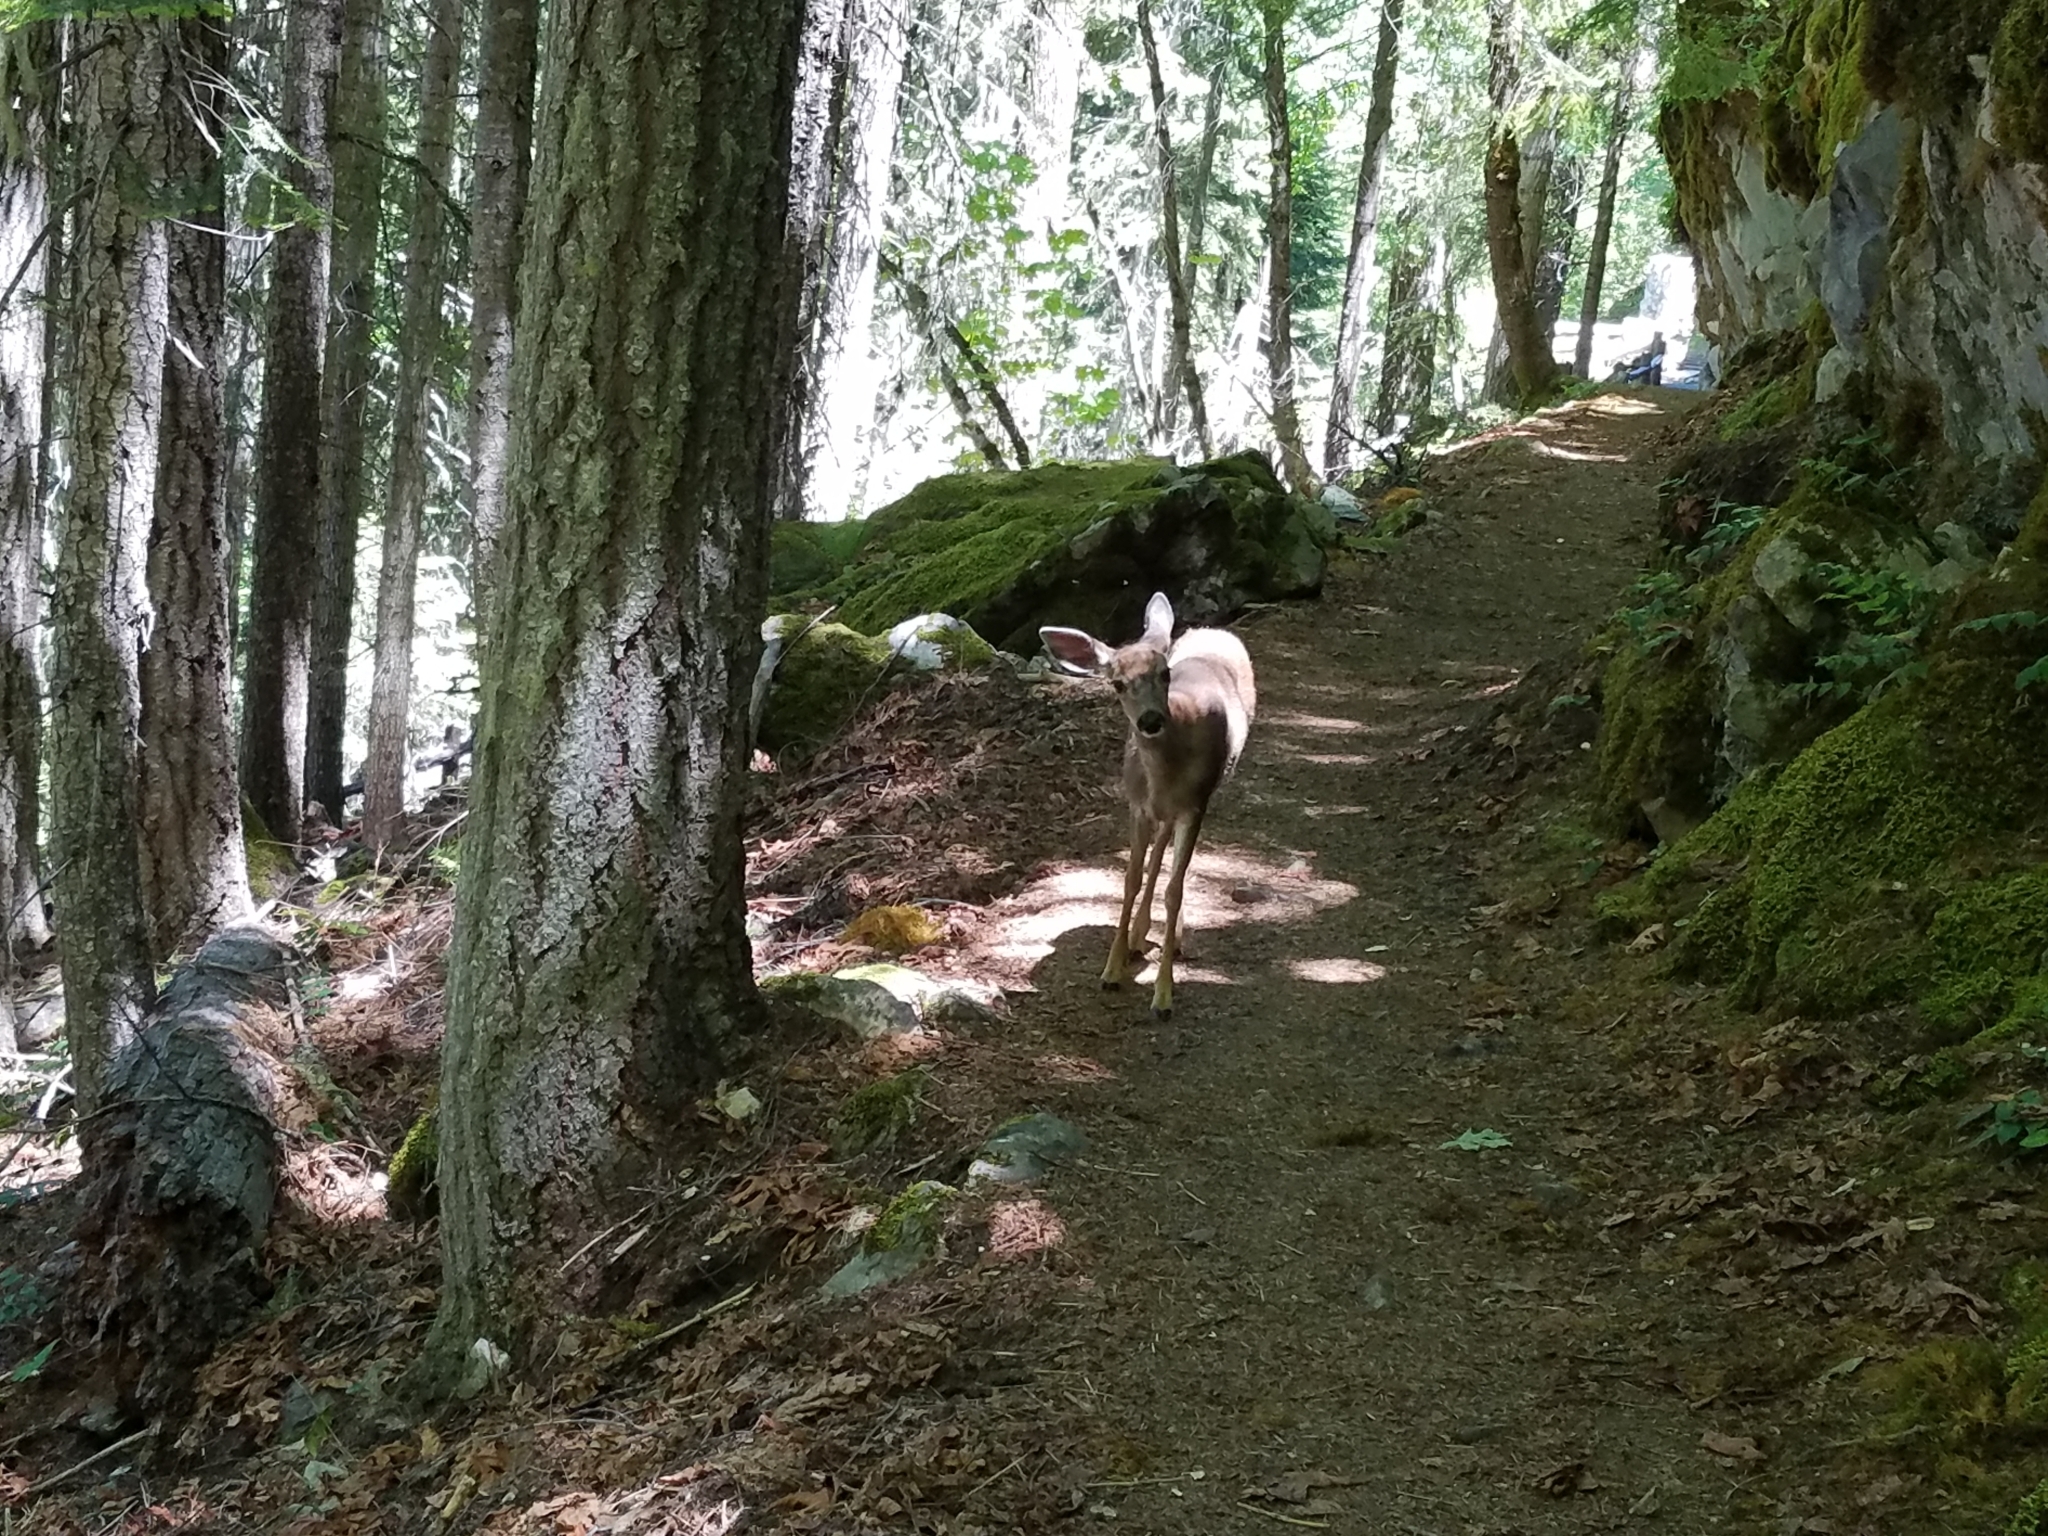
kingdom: Animalia
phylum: Chordata
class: Mammalia
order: Artiodactyla
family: Cervidae
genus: Odocoileus
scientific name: Odocoileus hemionus
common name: Mule deer
